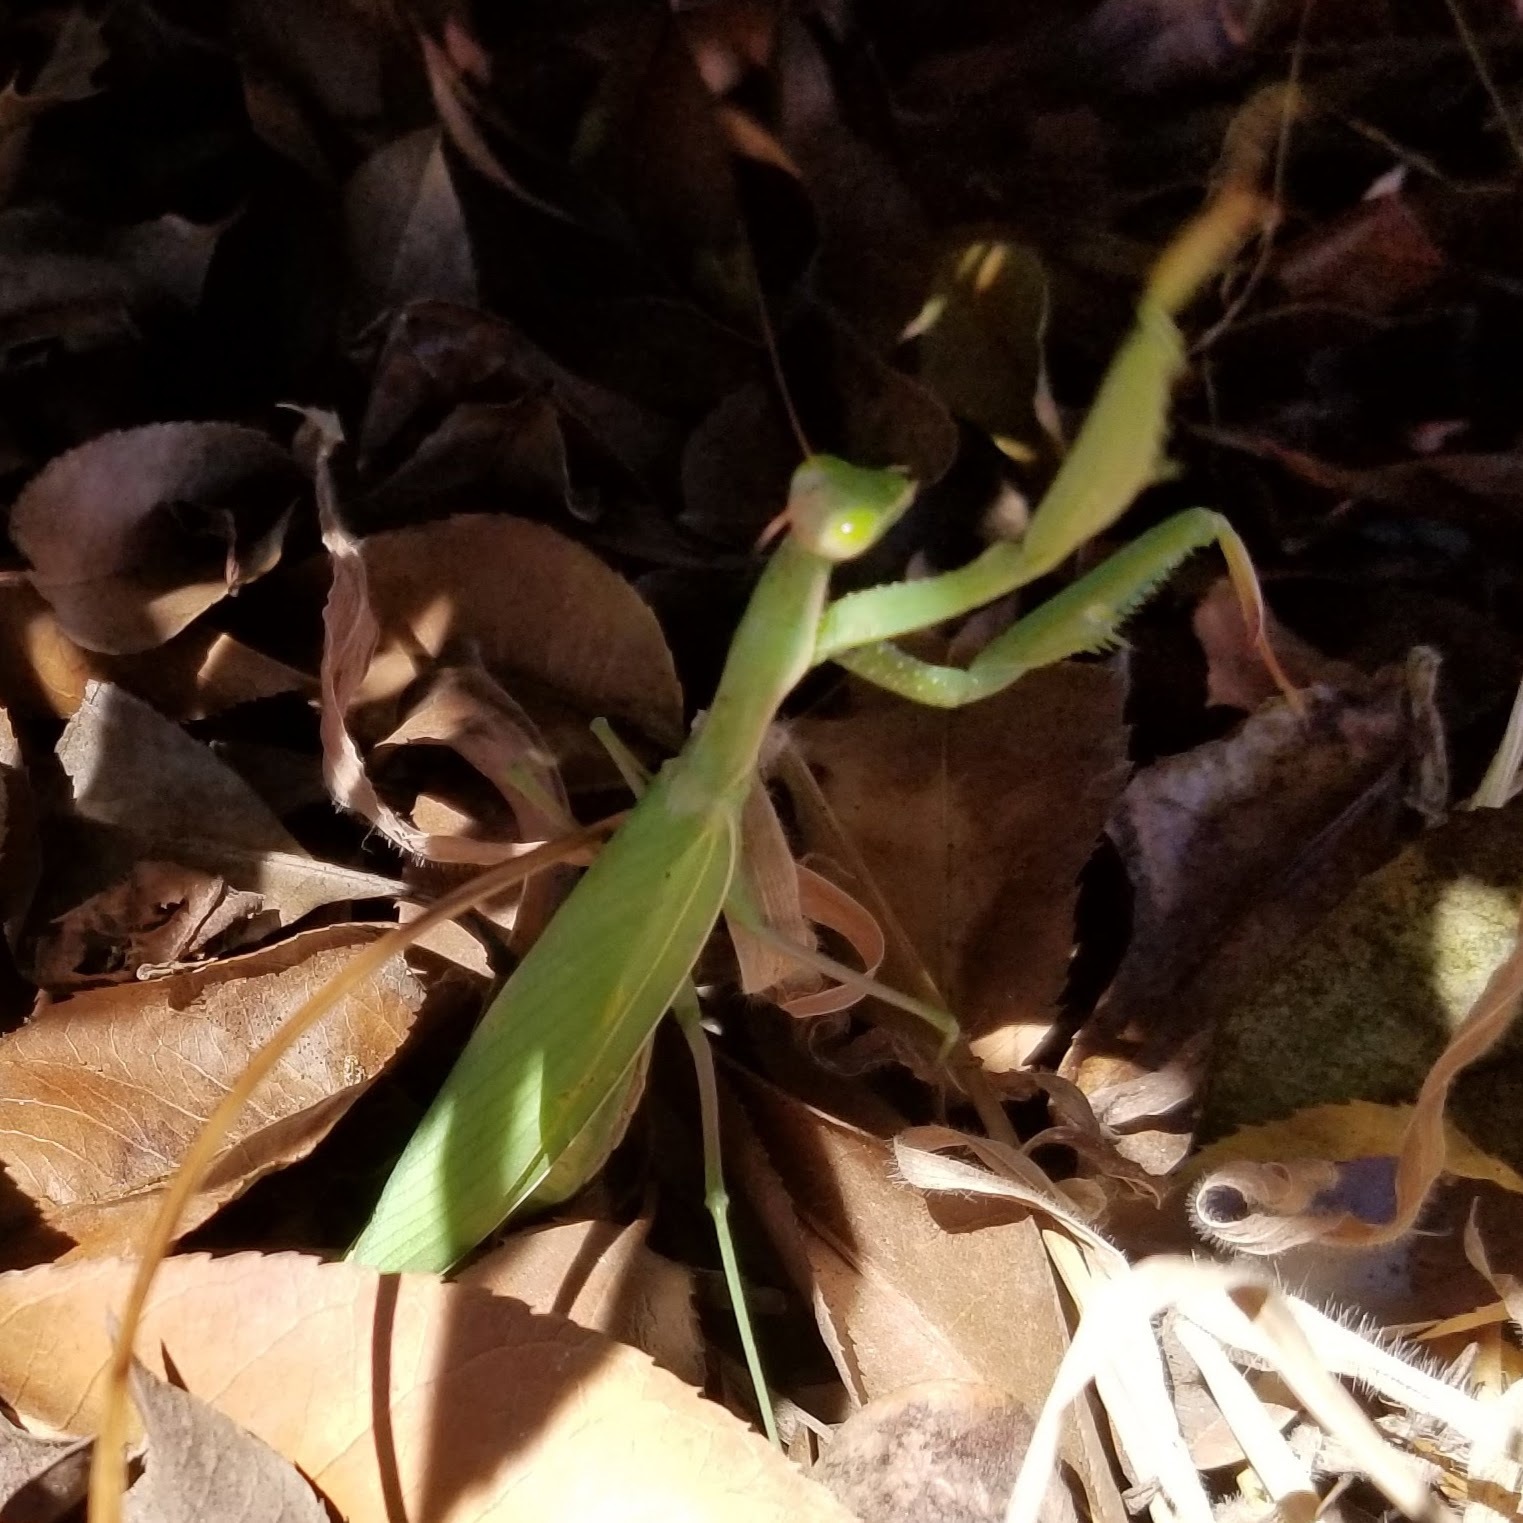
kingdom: Animalia
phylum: Arthropoda
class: Insecta
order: Mantodea
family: Mantidae
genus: Mantis
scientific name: Mantis religiosa
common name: Praying mantis
